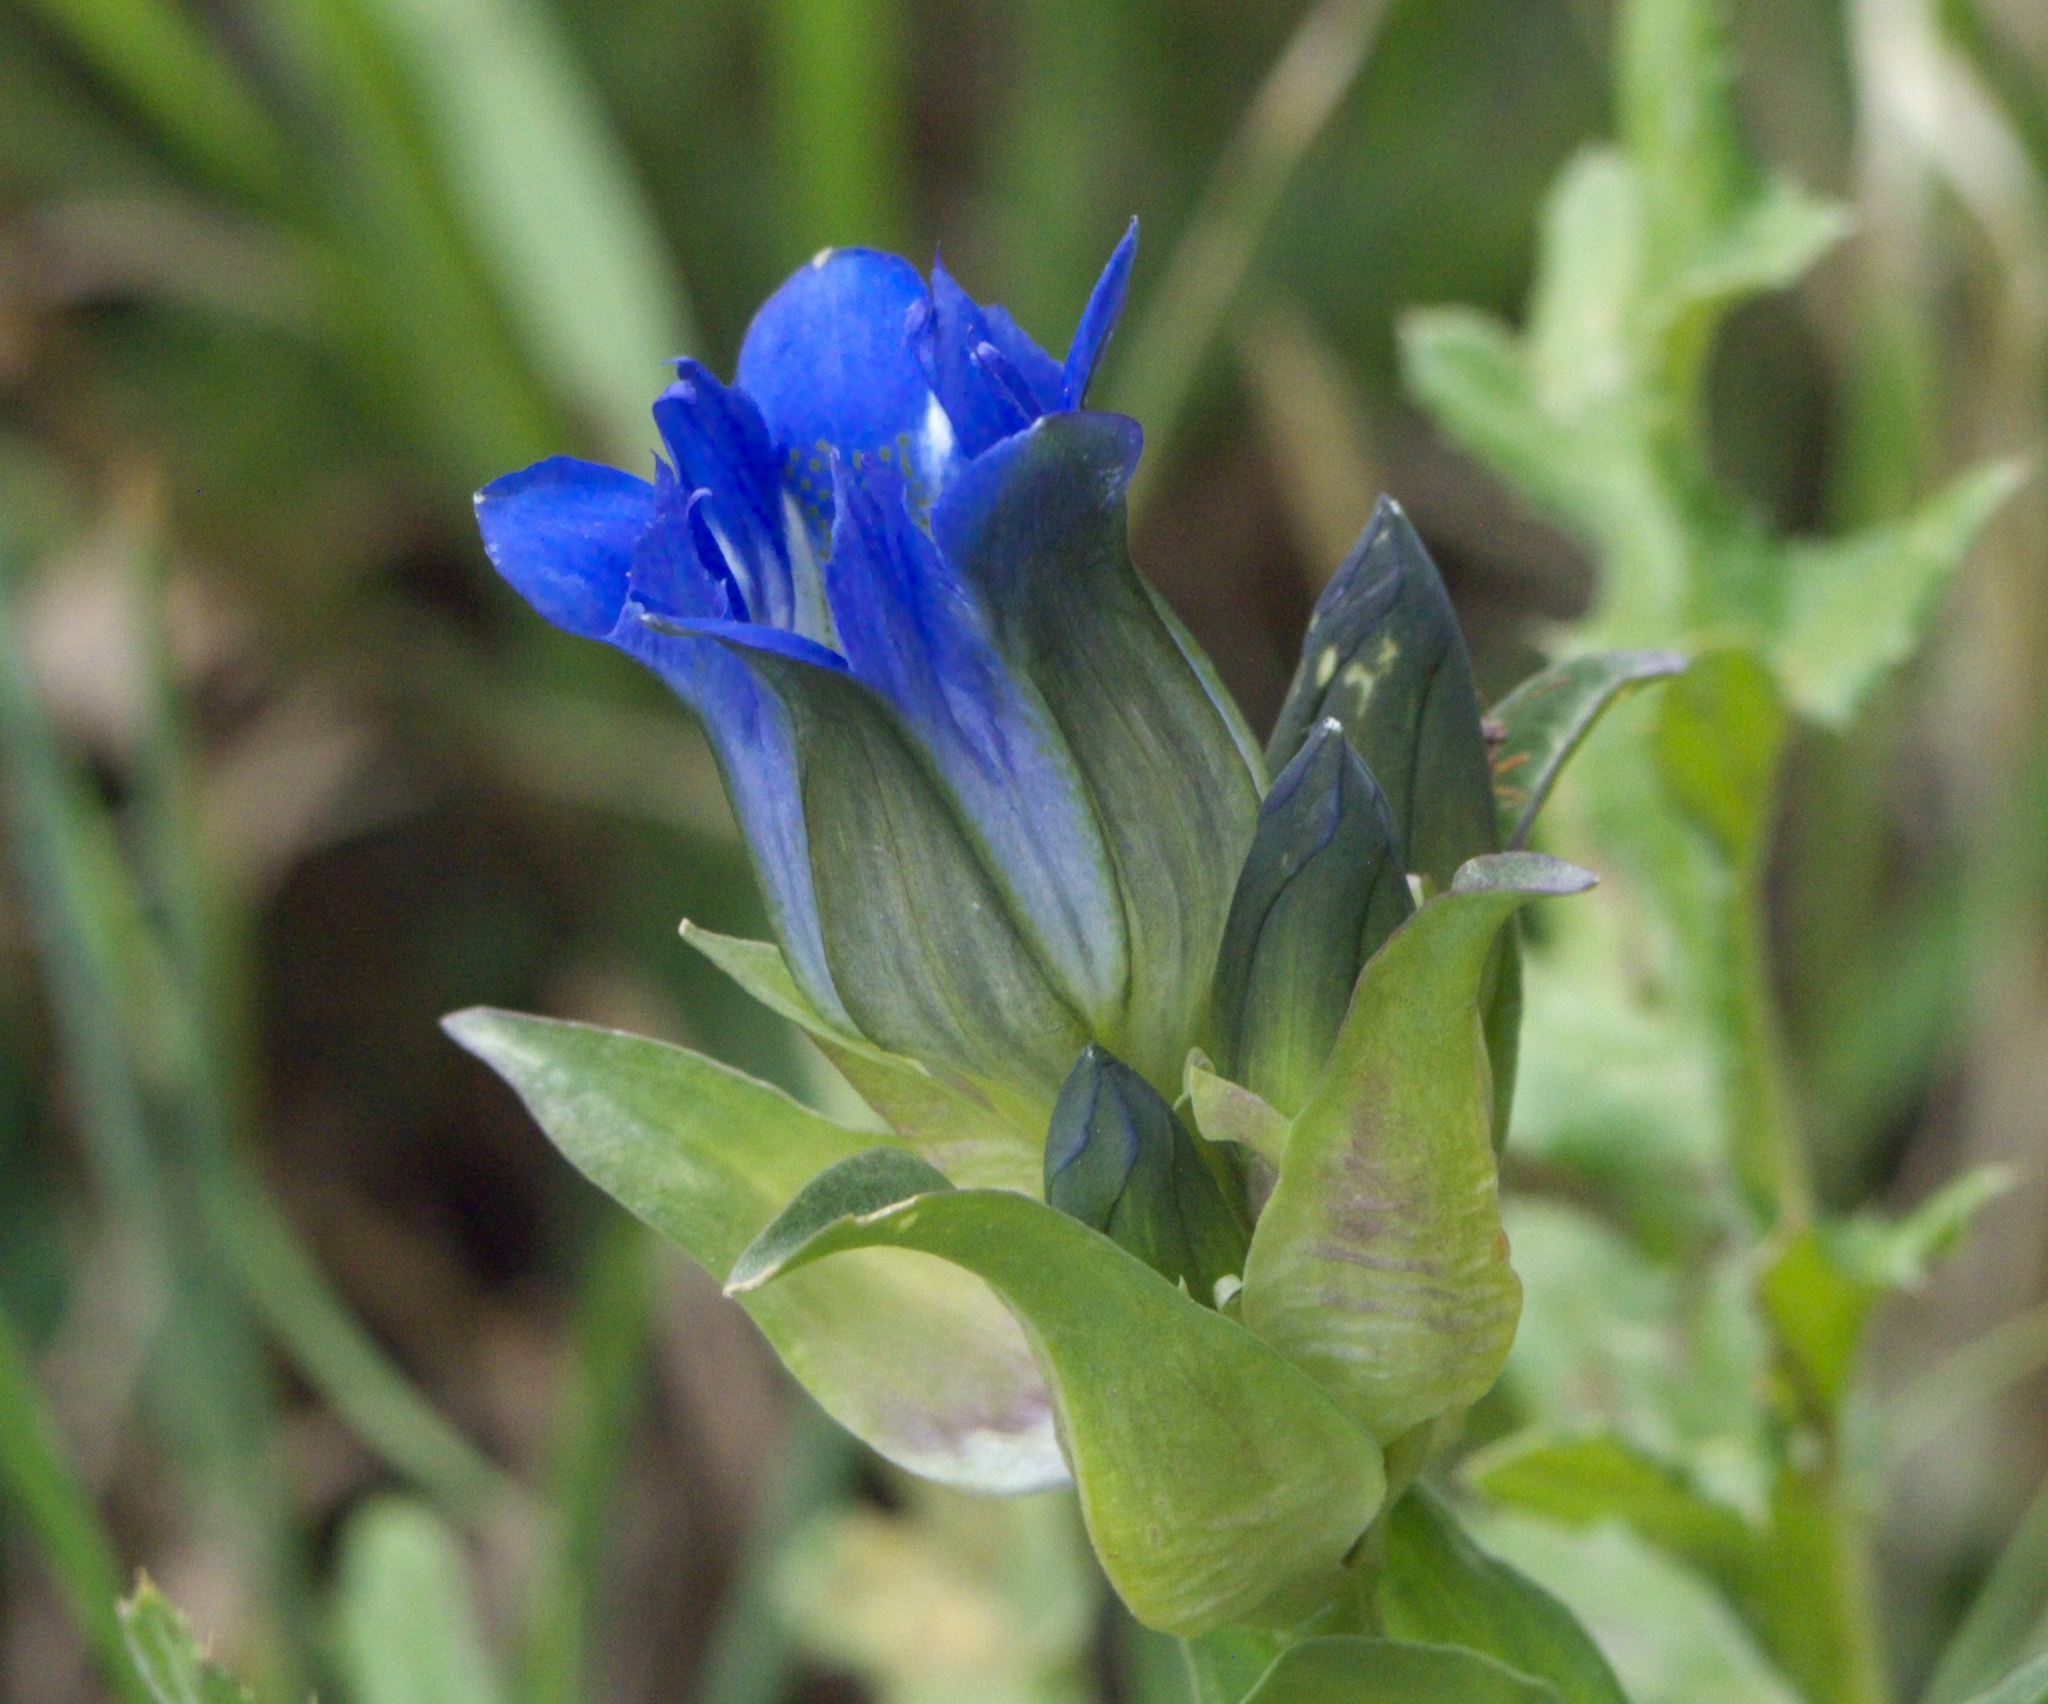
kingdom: Plantae
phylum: Tracheophyta
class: Magnoliopsida
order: Gentianales
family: Gentianaceae
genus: Gentiana
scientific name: Gentiana parryi
